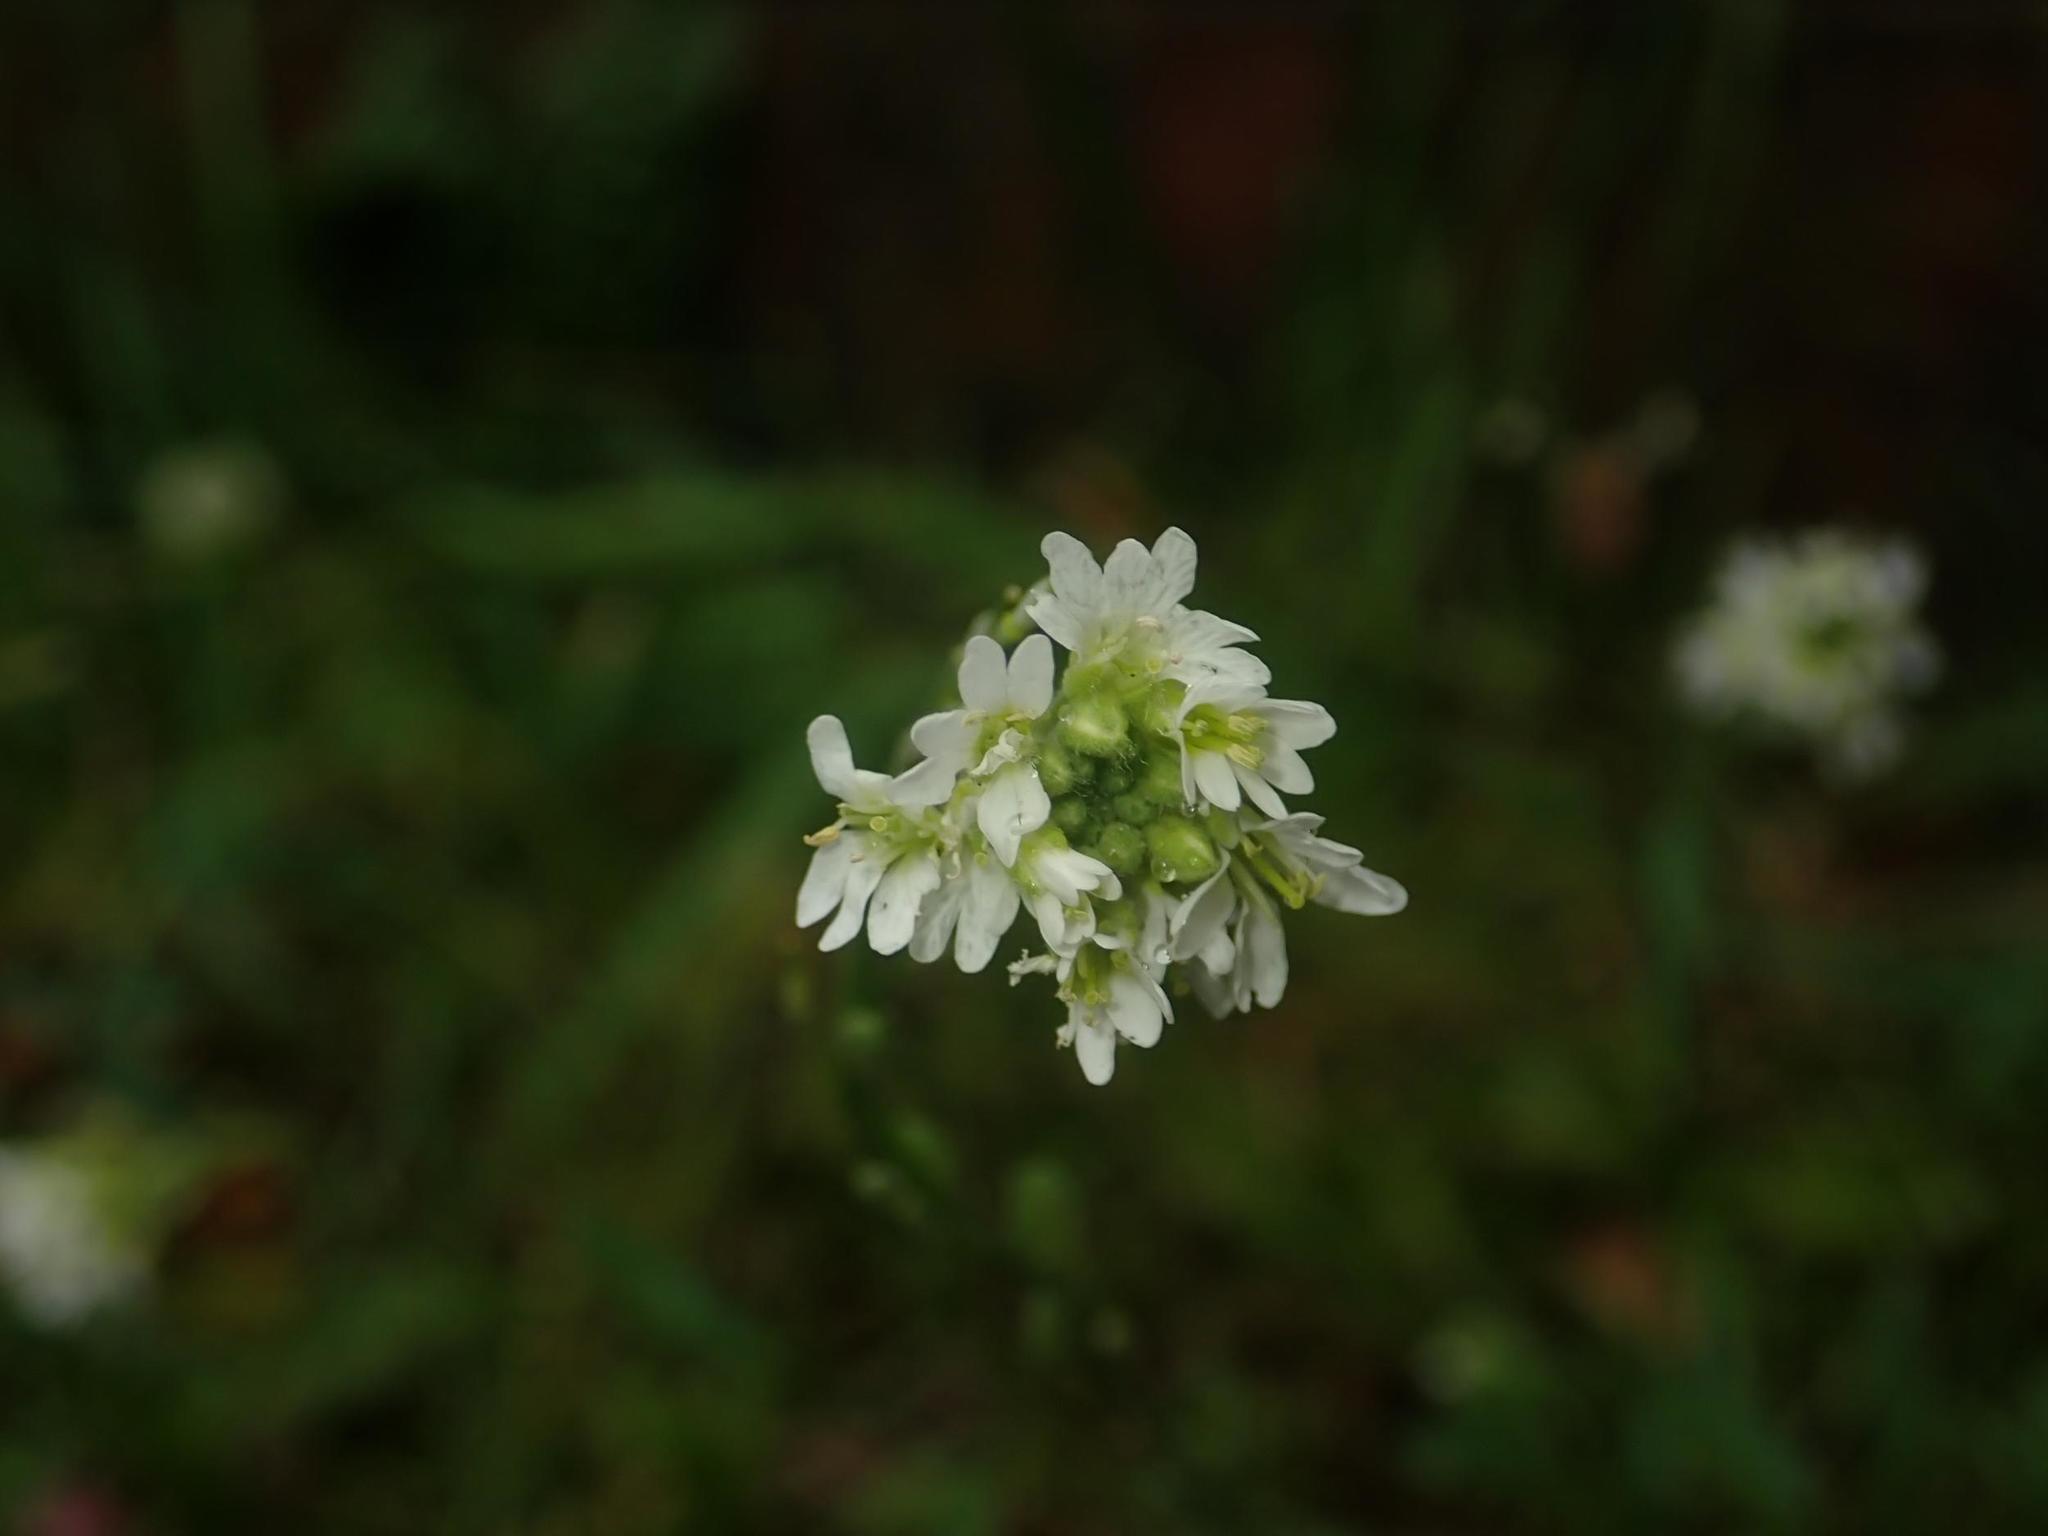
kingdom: Plantae
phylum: Tracheophyta
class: Magnoliopsida
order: Brassicales
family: Brassicaceae
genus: Berteroa
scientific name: Berteroa incana
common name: Hoary alison
